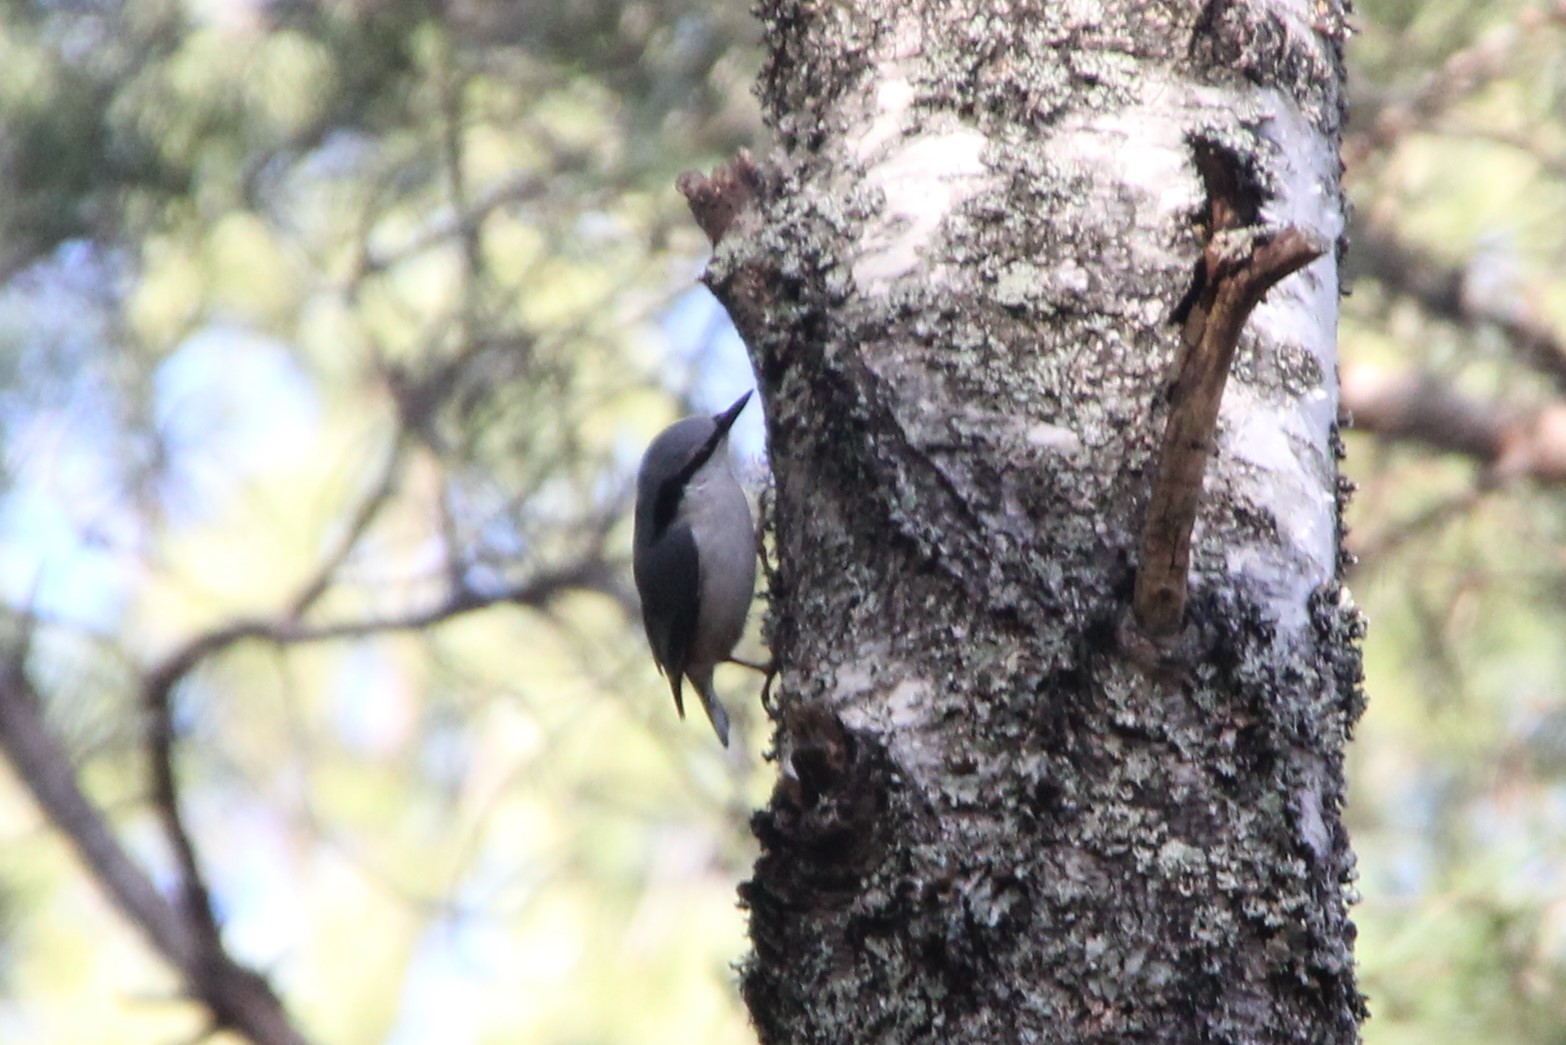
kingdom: Animalia
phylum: Chordata
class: Aves
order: Passeriformes
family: Sittidae
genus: Sitta
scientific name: Sitta europaea
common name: Eurasian nuthatch
